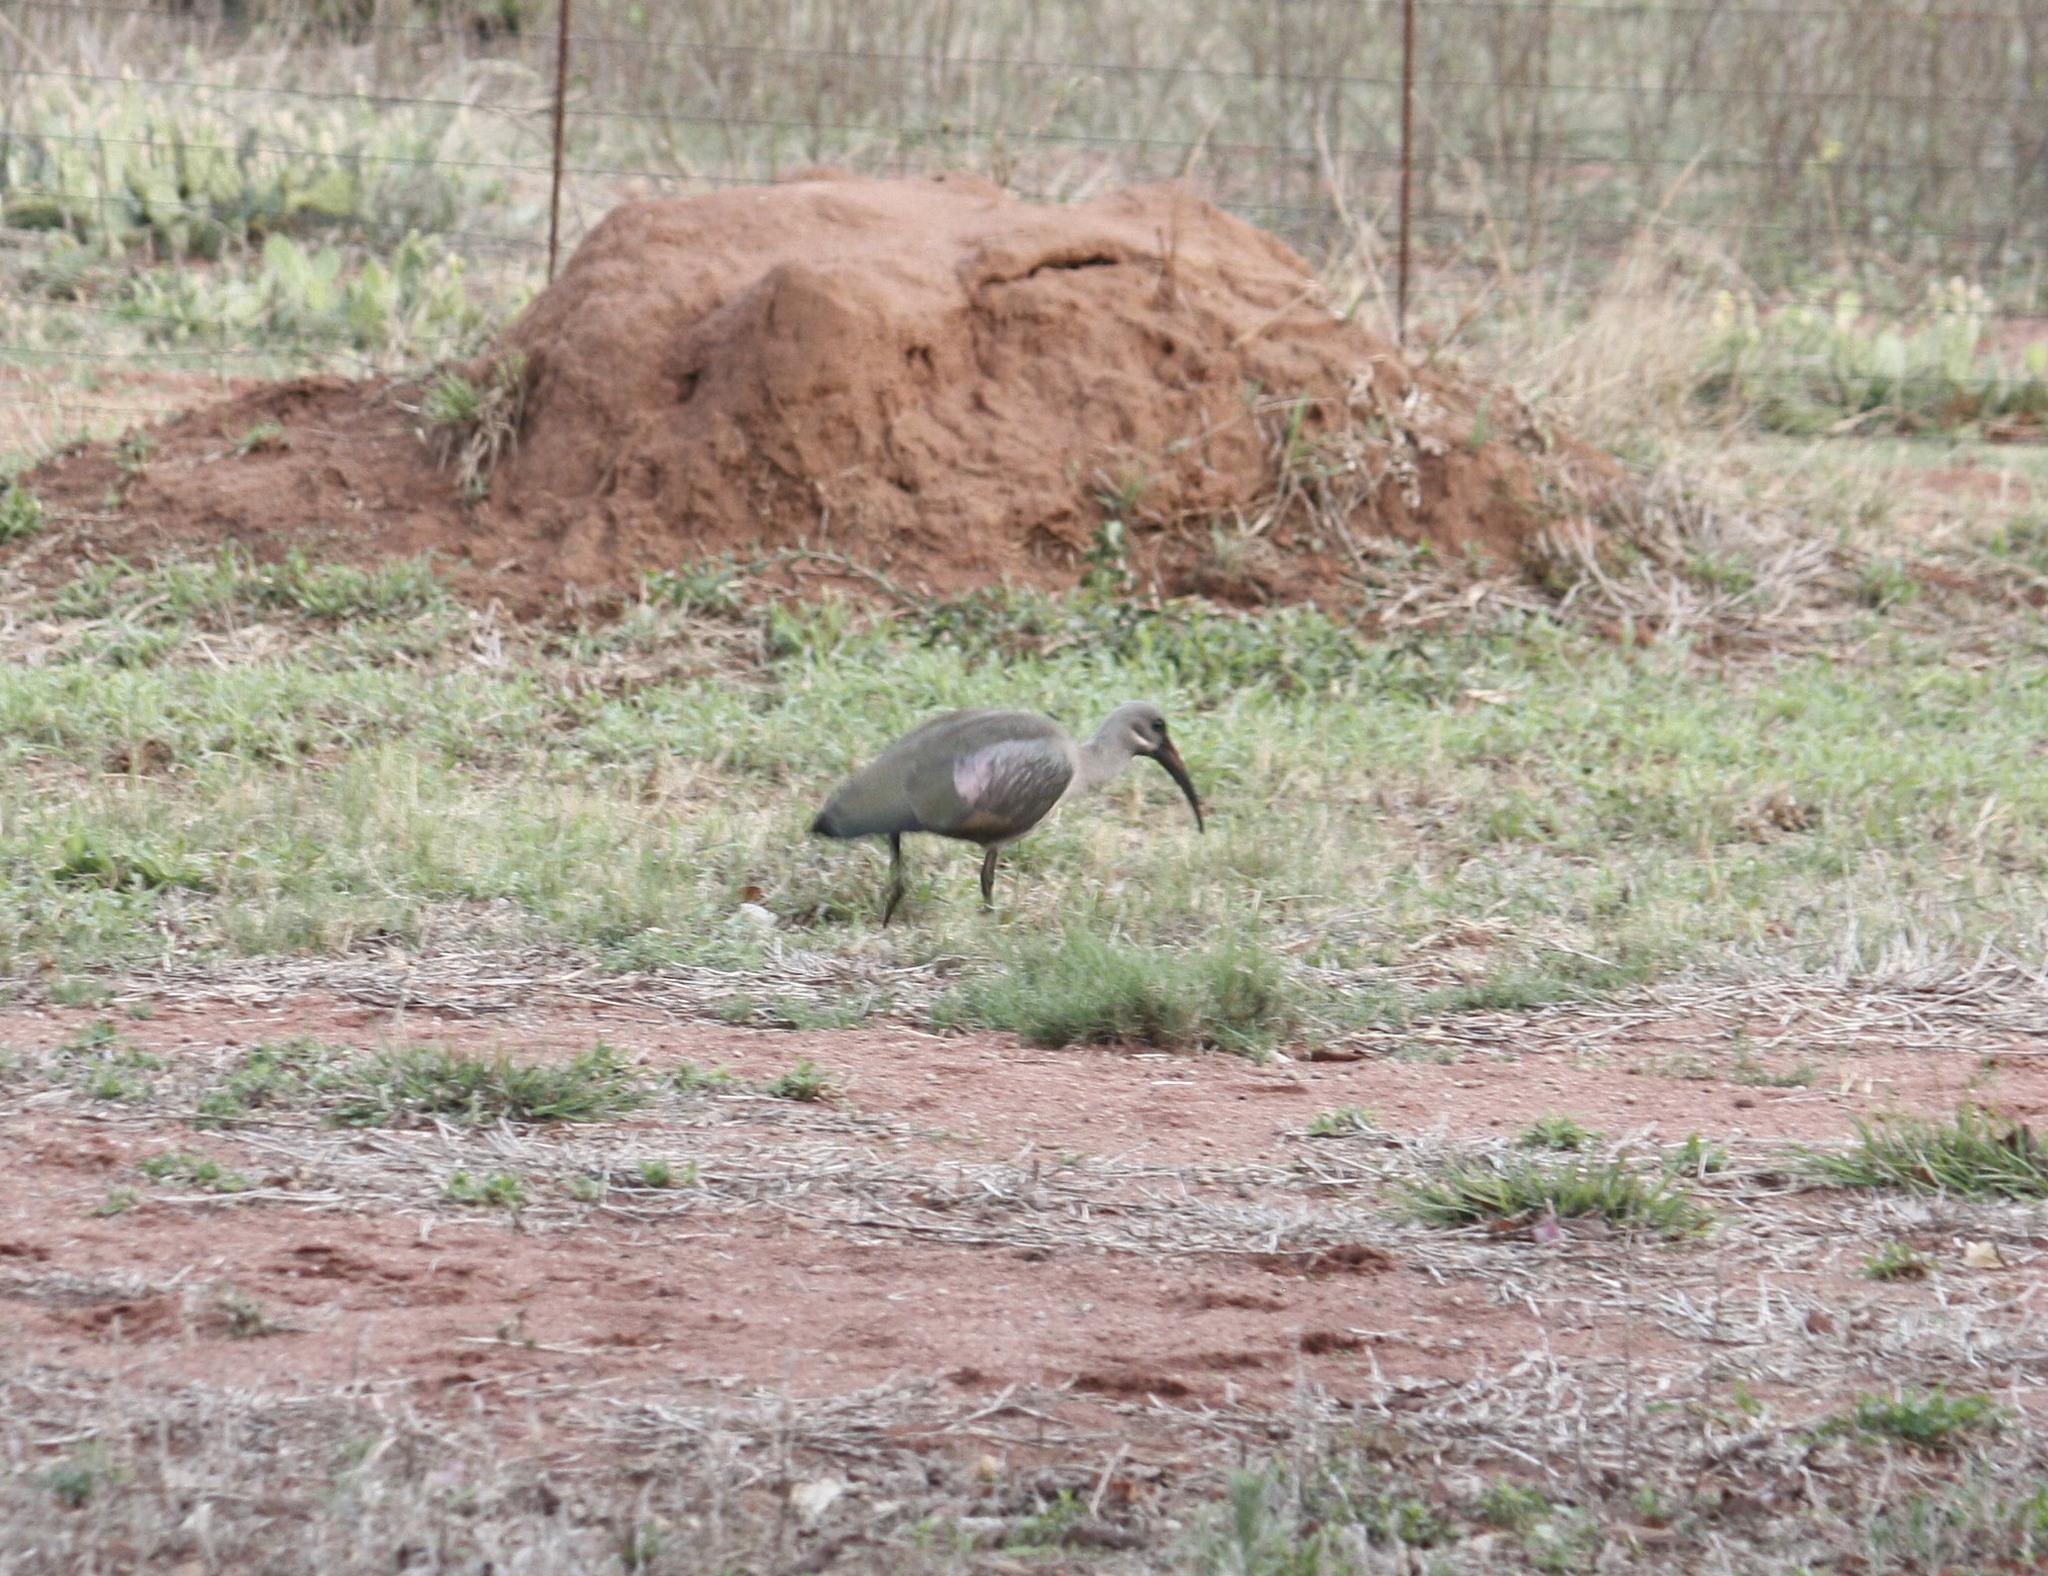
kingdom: Animalia
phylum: Chordata
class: Aves
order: Pelecaniformes
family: Threskiornithidae
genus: Bostrychia
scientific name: Bostrychia hagedash
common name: Hadada ibis
